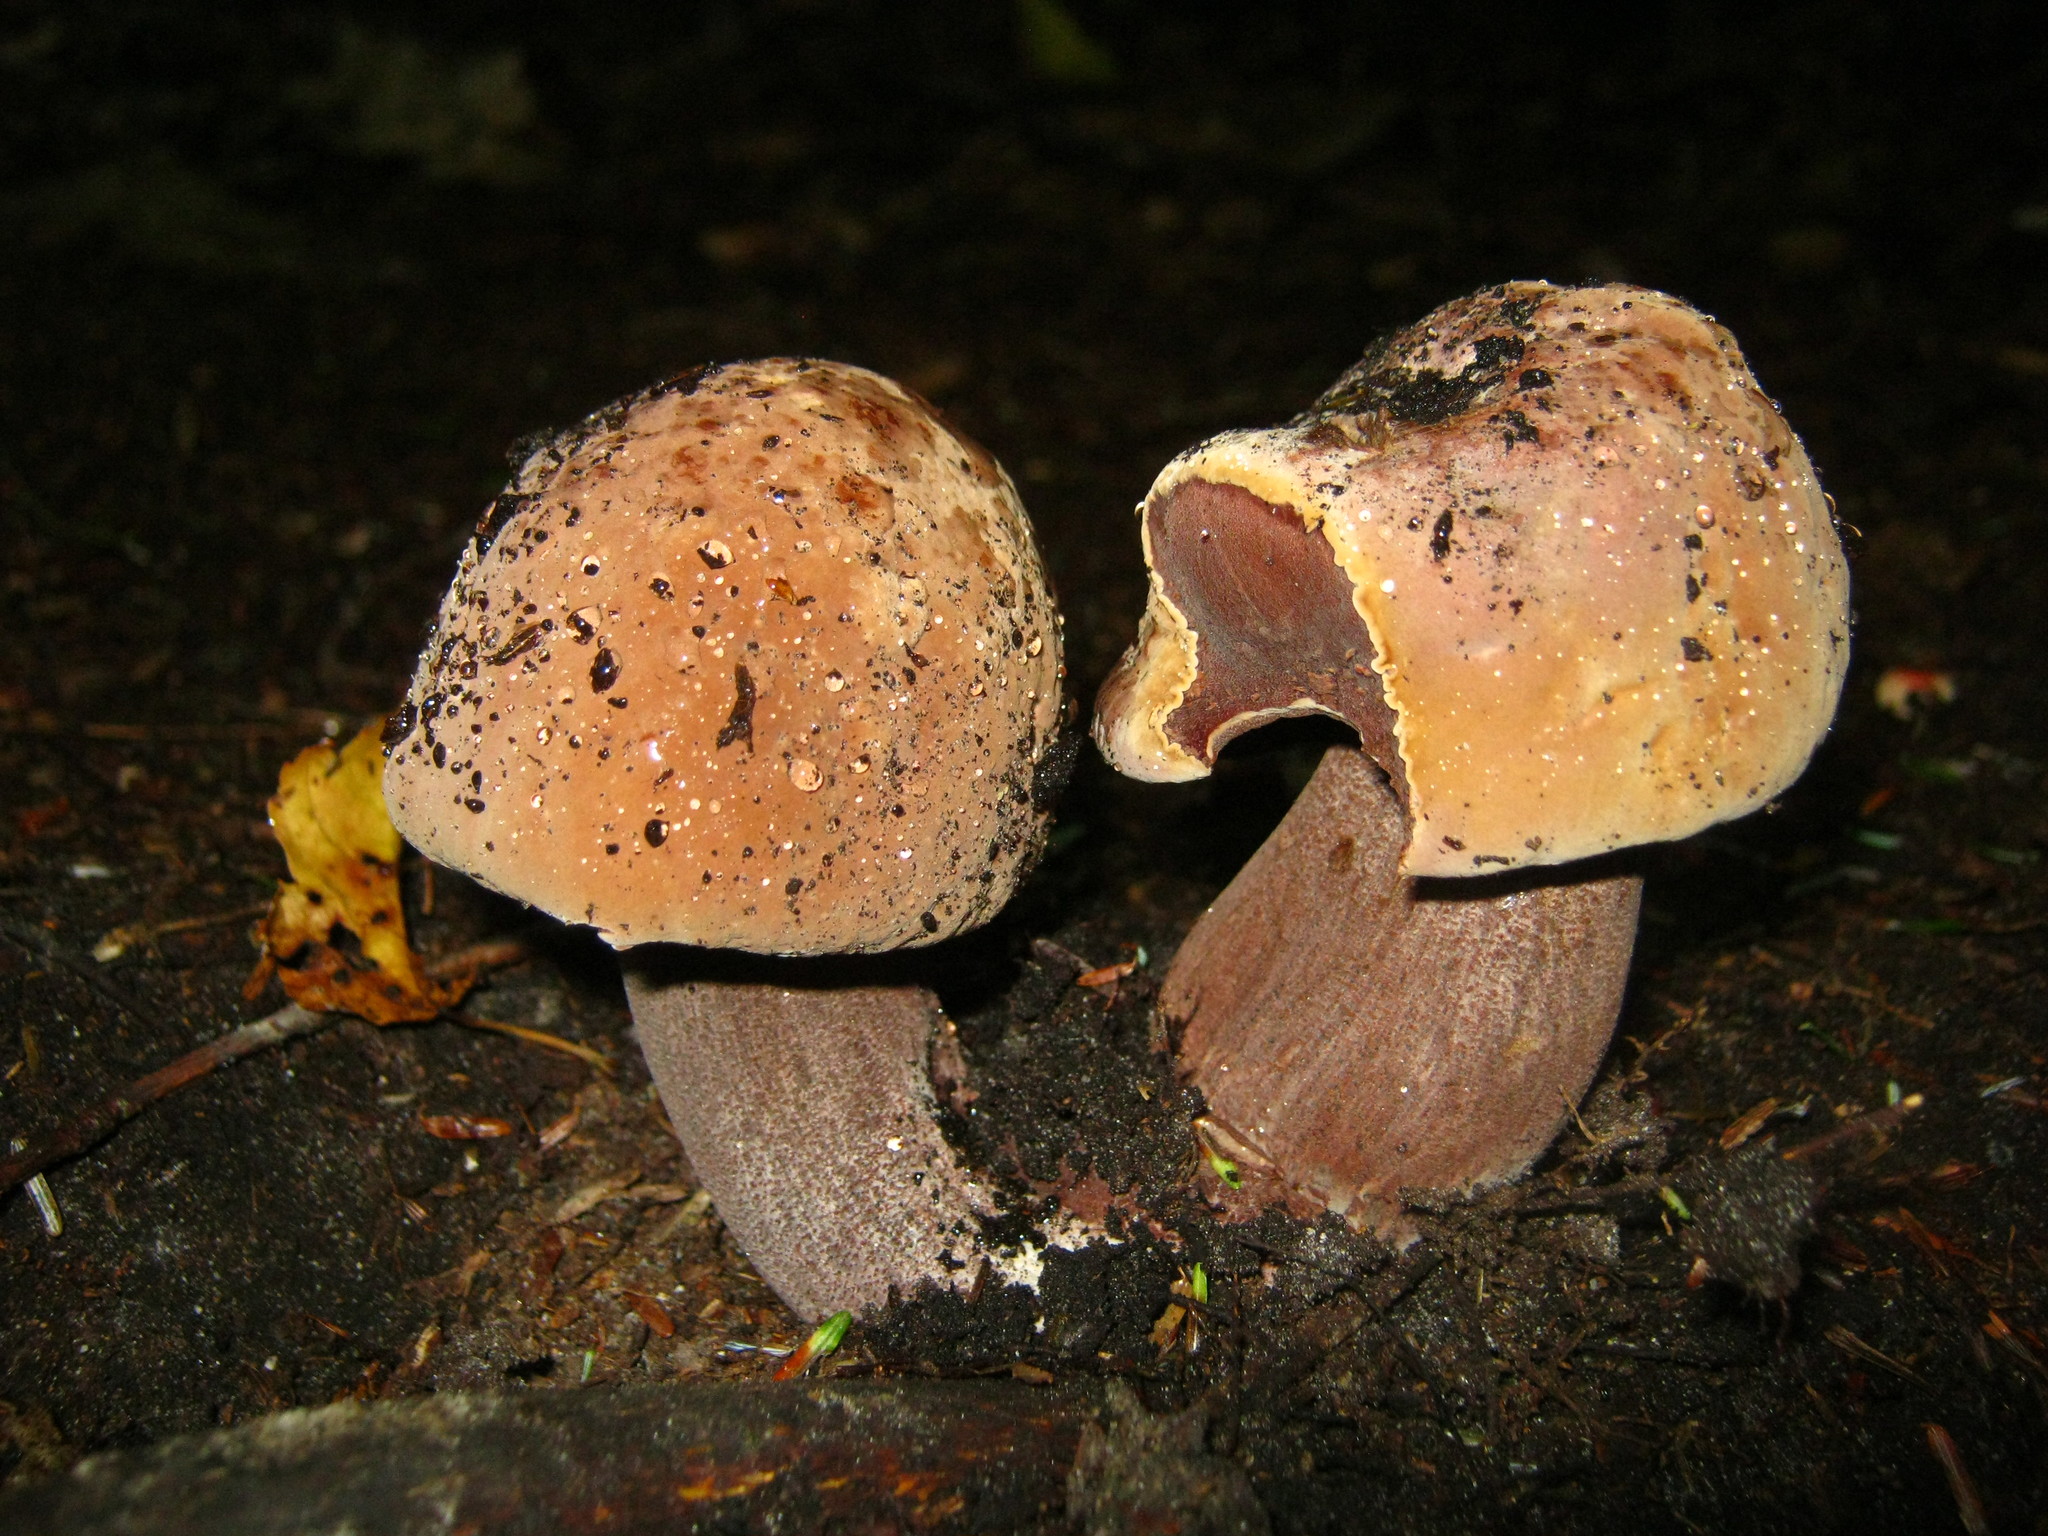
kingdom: Fungi
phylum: Basidiomycota
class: Agaricomycetes
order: Boletales
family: Boletaceae
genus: Sutorius
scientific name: Sutorius eximius
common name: Lilac-brown bolete
